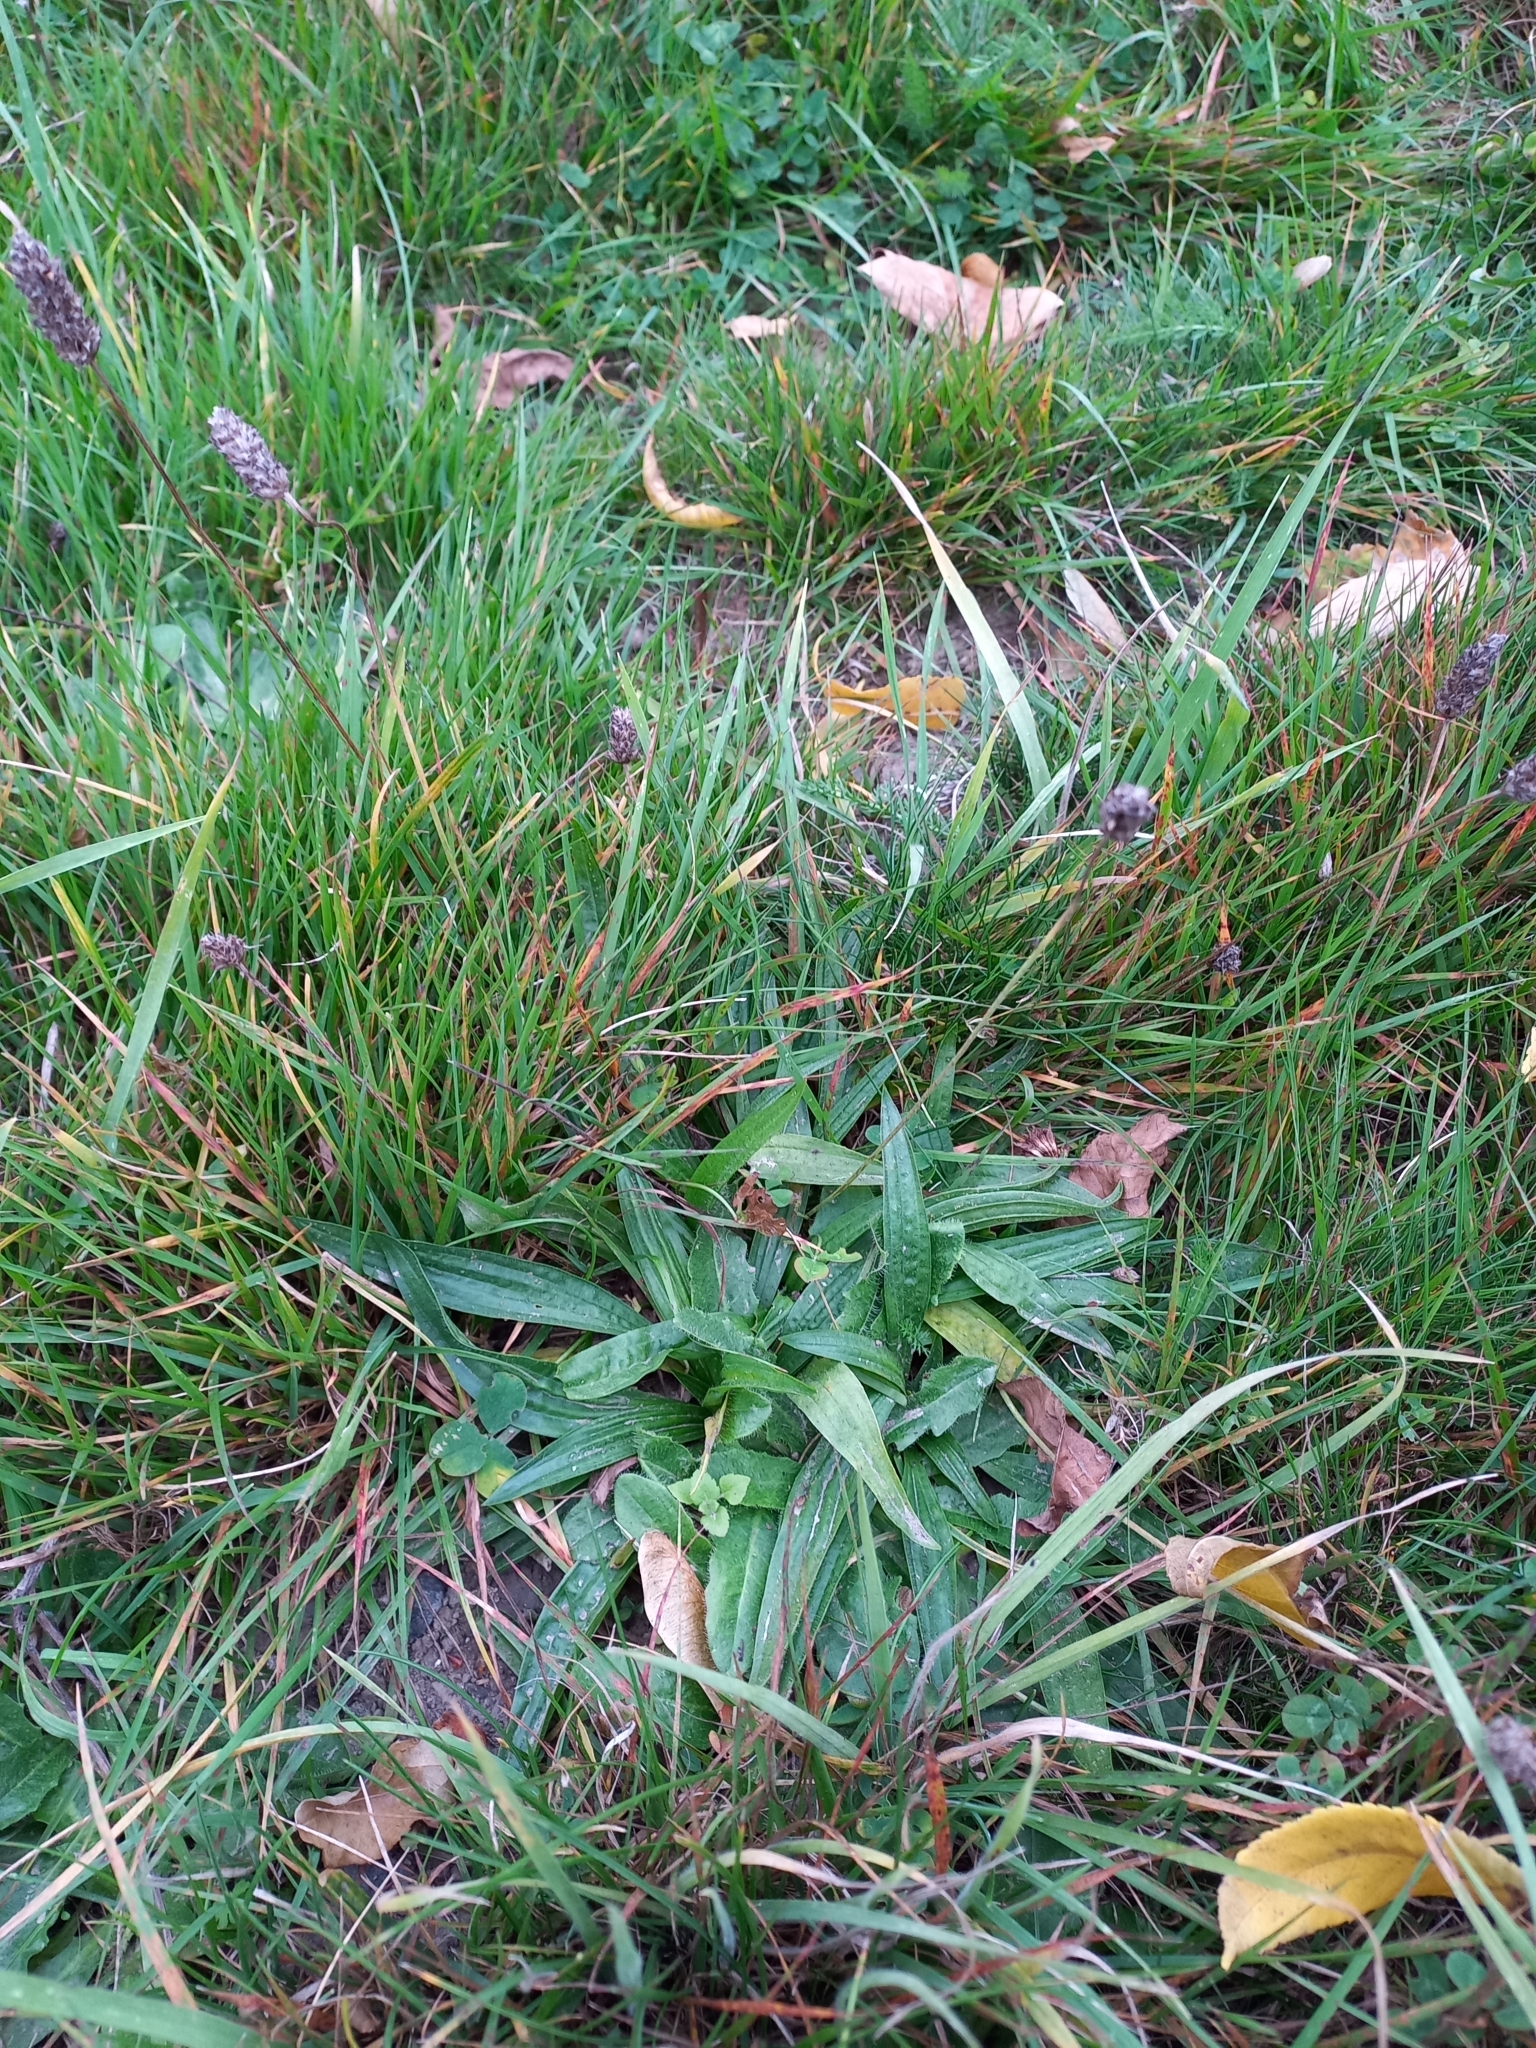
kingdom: Plantae
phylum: Tracheophyta
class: Magnoliopsida
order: Lamiales
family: Plantaginaceae
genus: Plantago
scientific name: Plantago lanceolata
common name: Ribwort plantain
